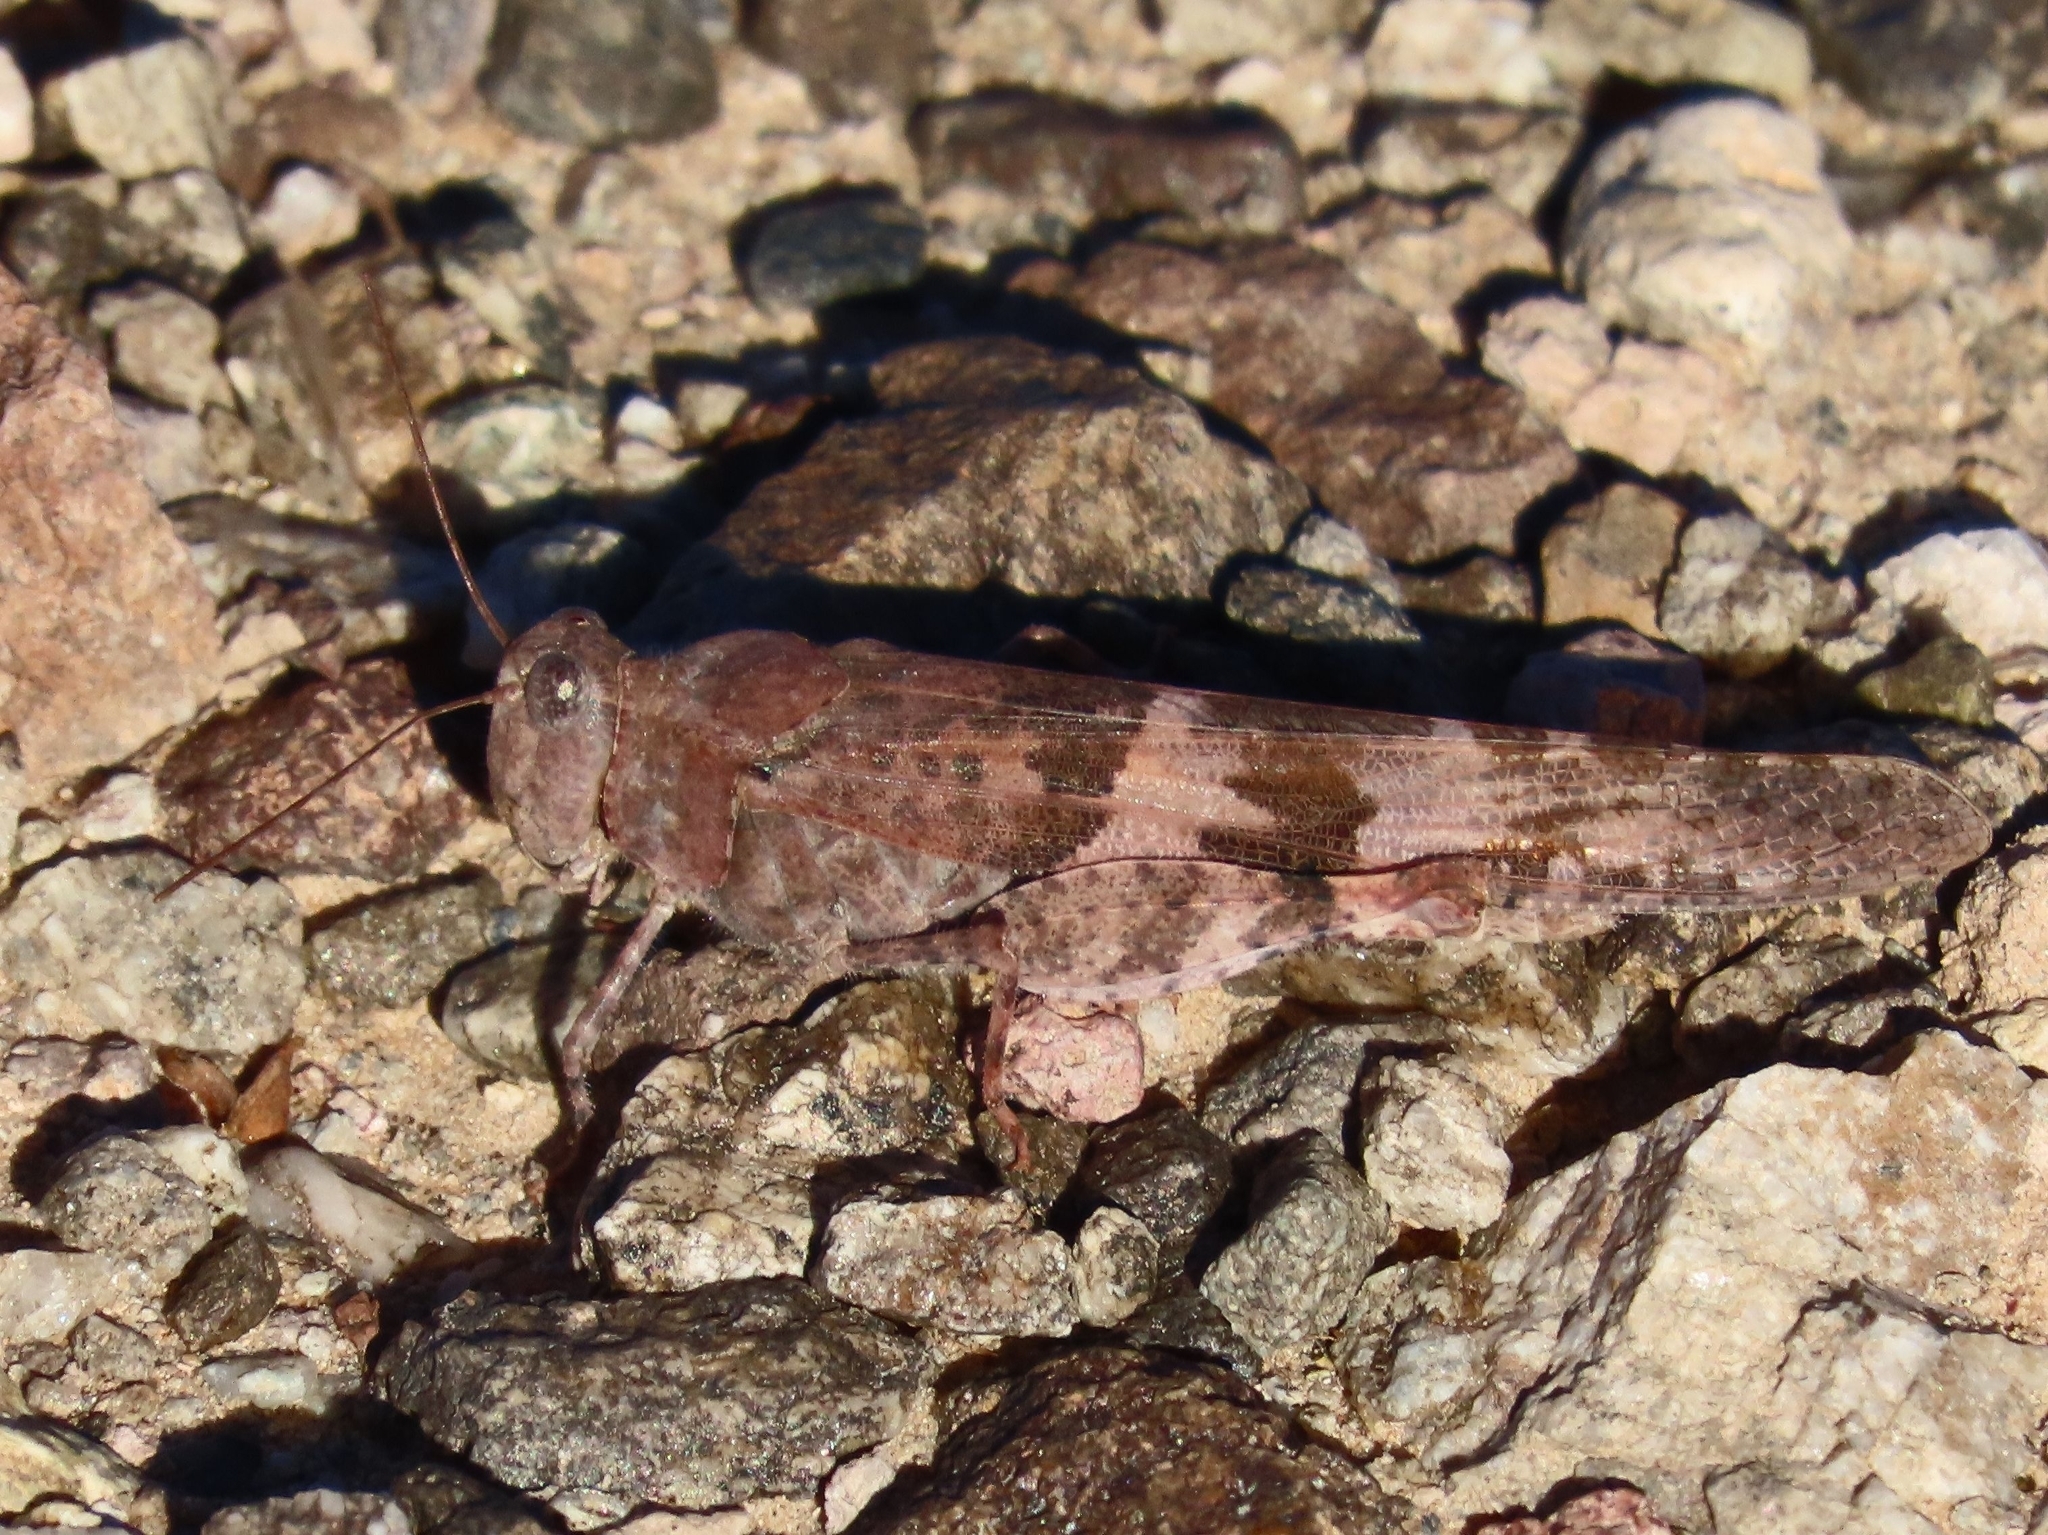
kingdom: Animalia
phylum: Arthropoda
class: Insecta
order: Orthoptera
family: Acrididae
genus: Trimerotropis
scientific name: Trimerotropis pallidipennis
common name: Pallid-winged grasshopper
